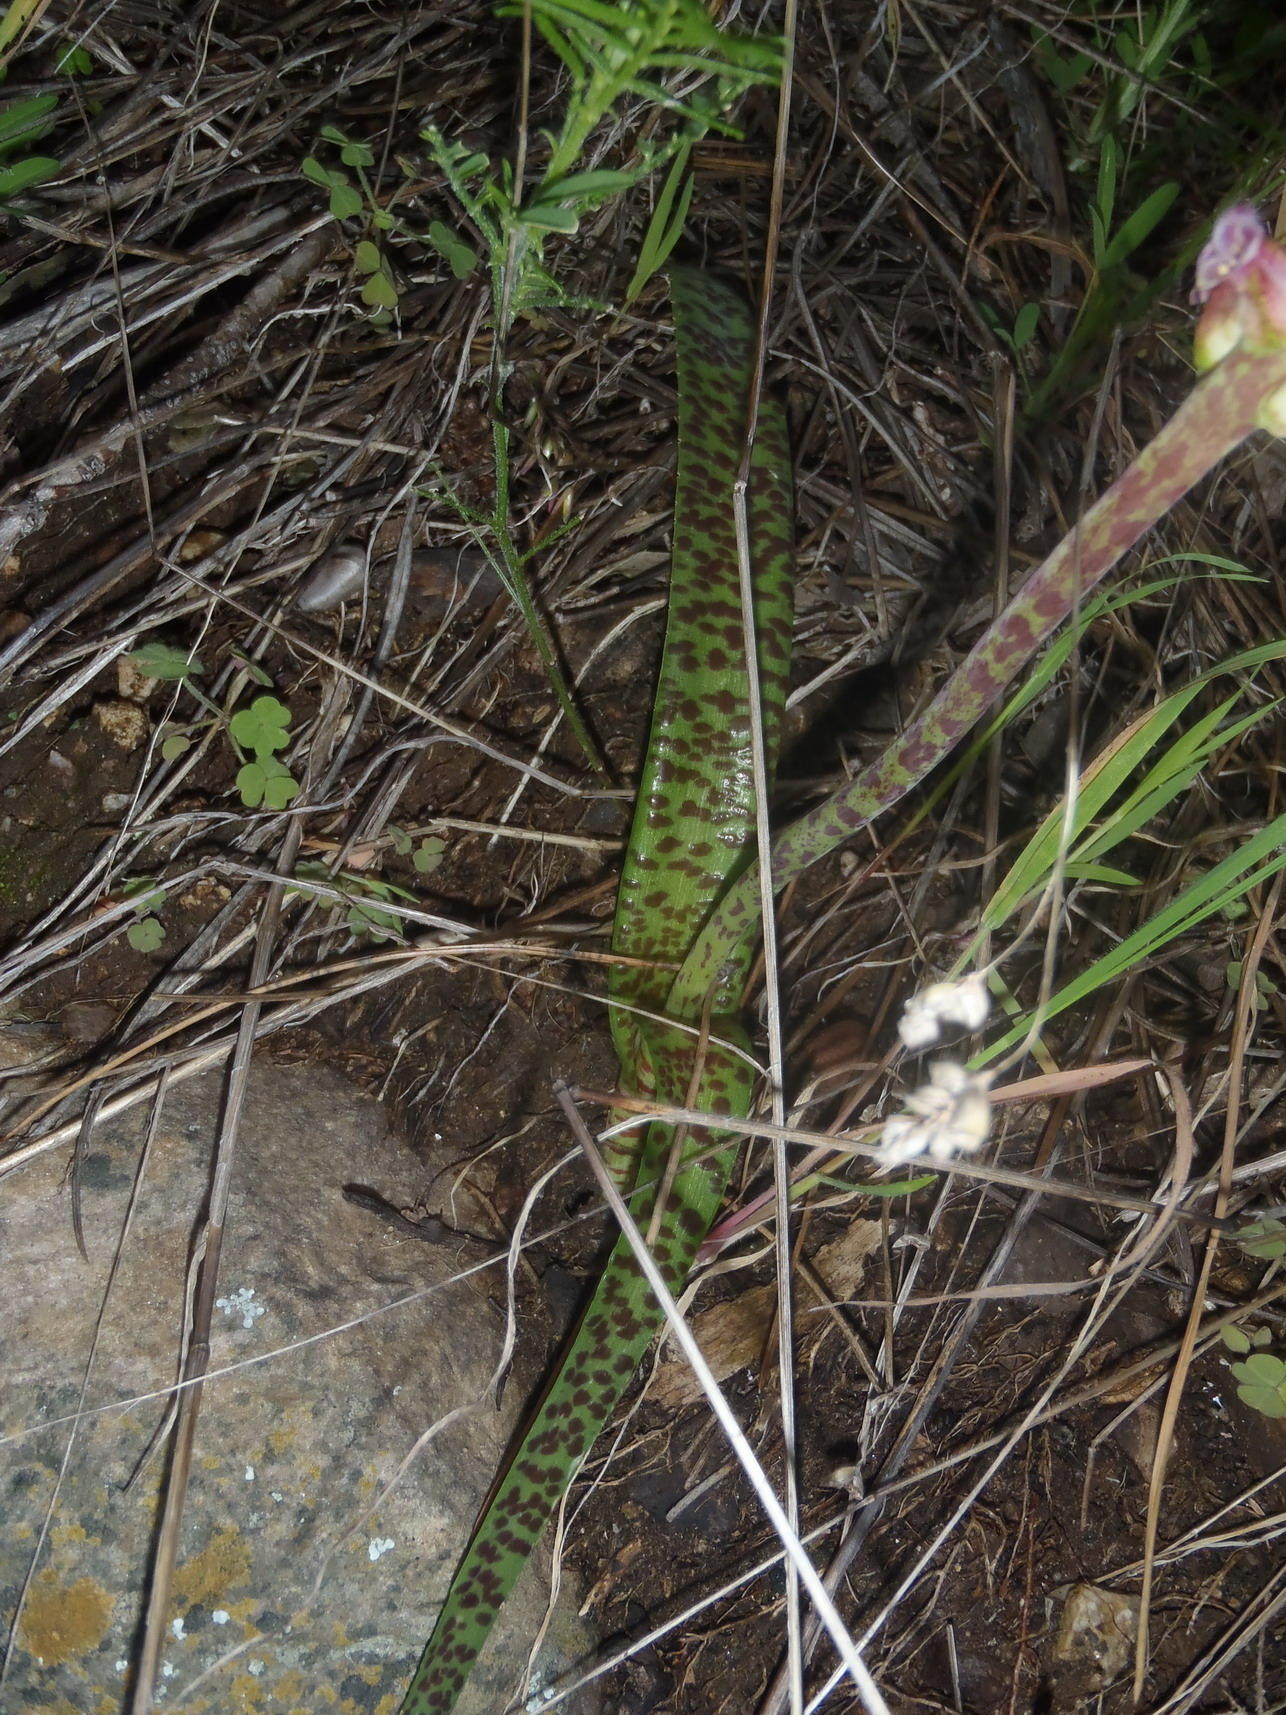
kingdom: Plantae
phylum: Tracheophyta
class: Liliopsida
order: Asparagales
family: Asparagaceae
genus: Lachenalia
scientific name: Lachenalia fistulosa
